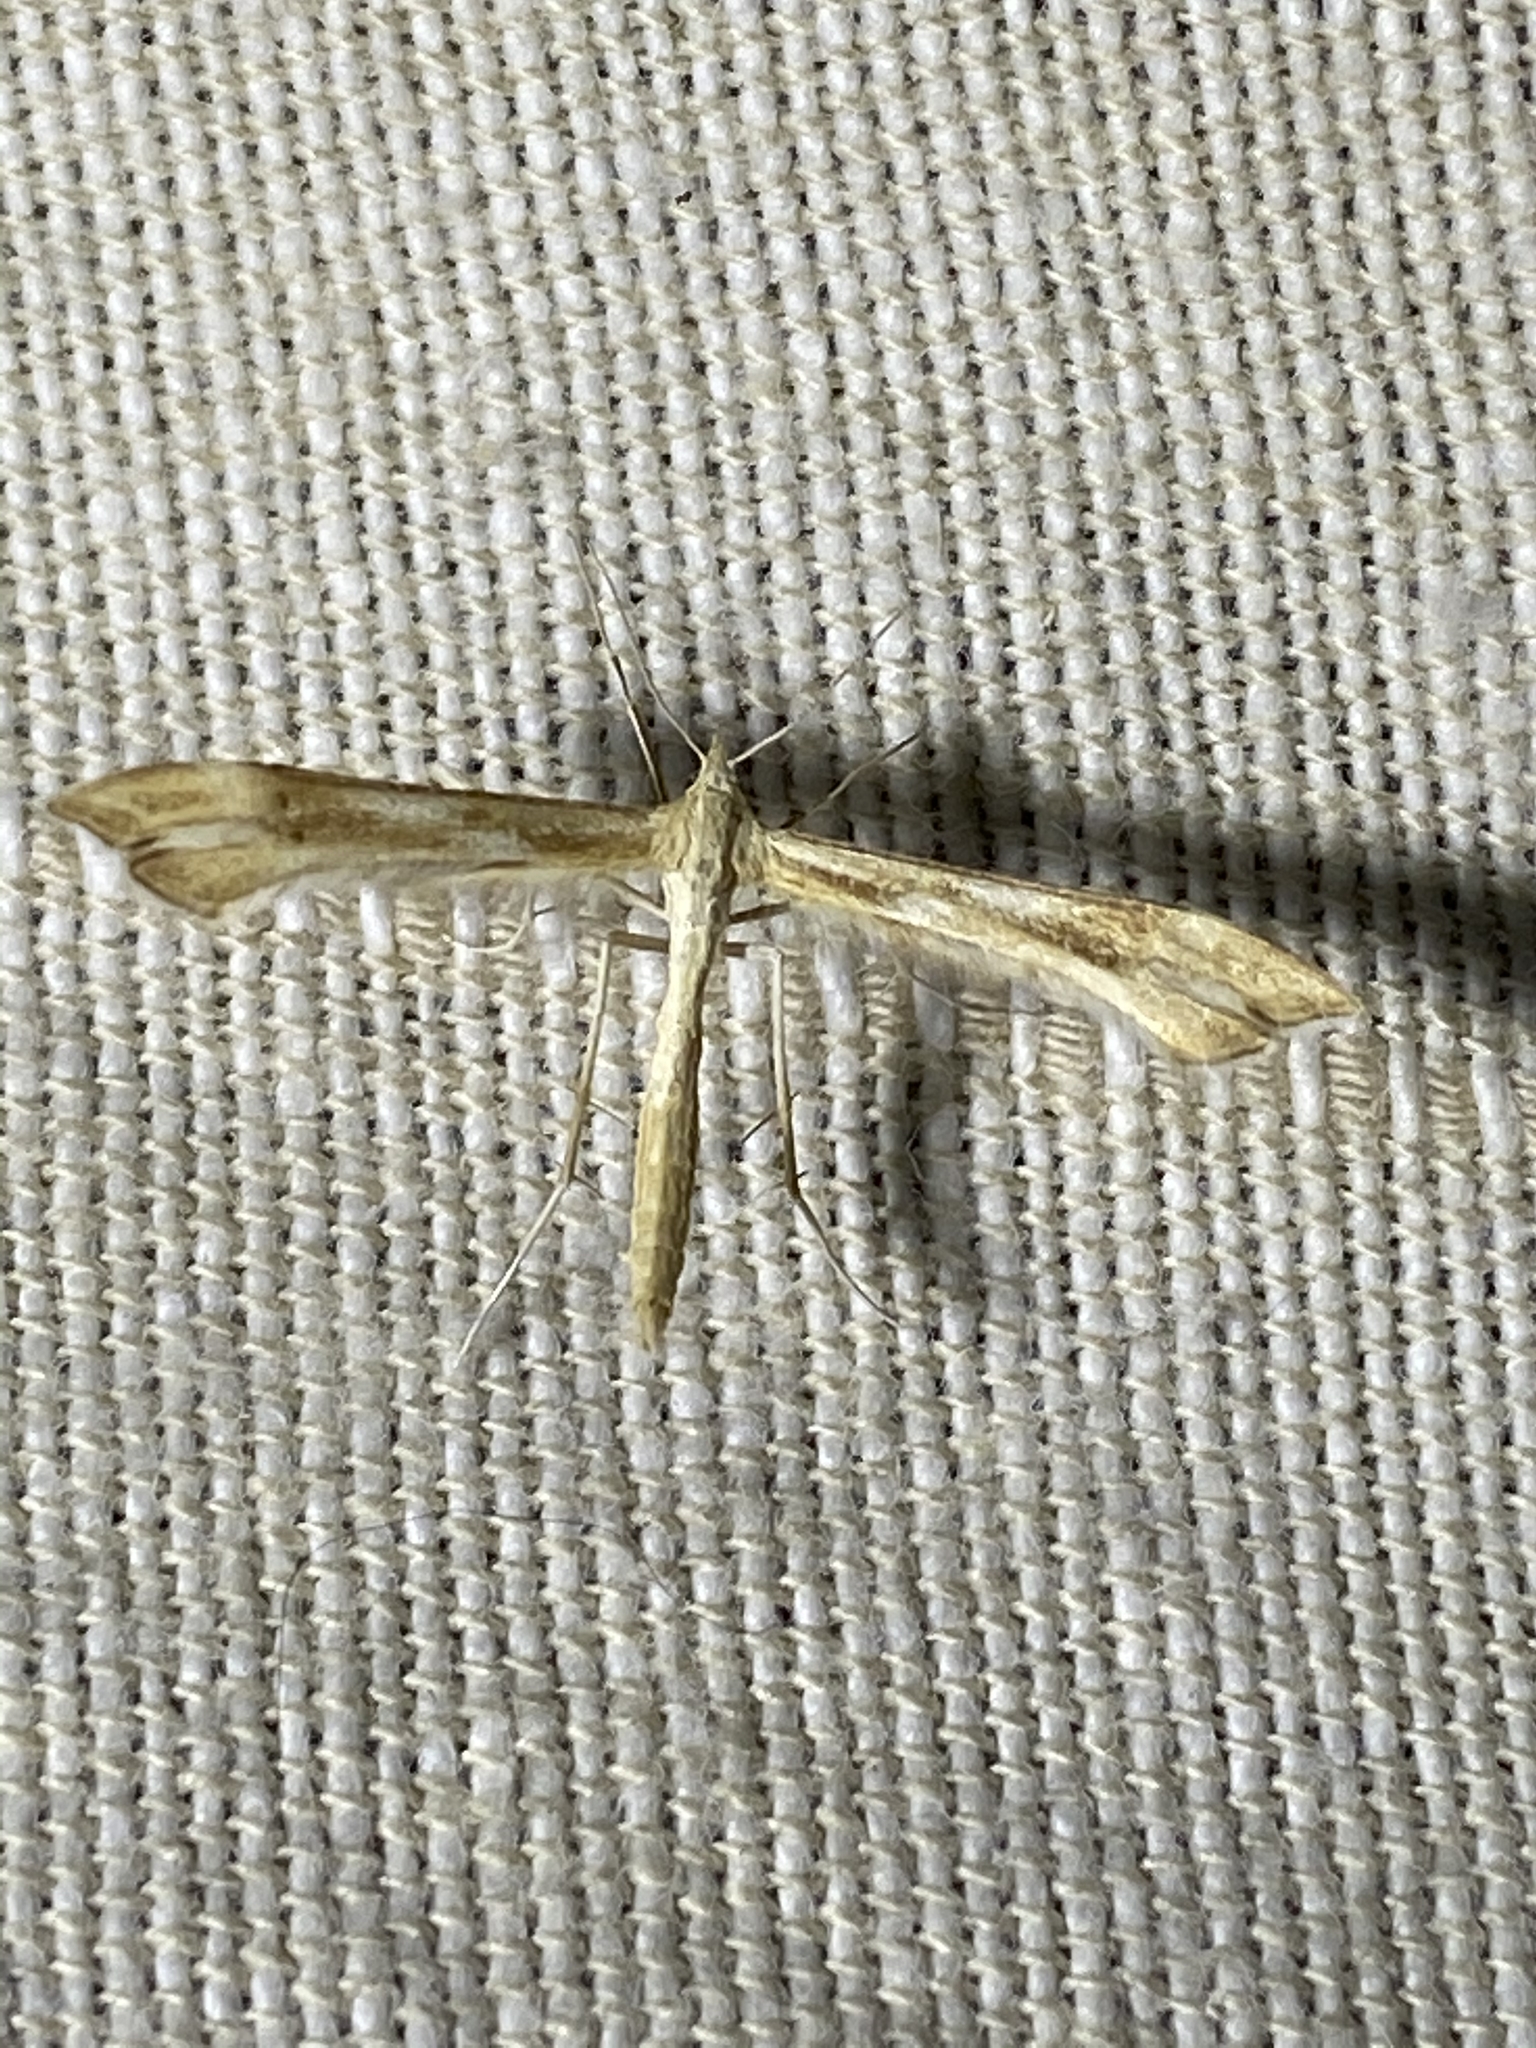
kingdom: Animalia
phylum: Arthropoda
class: Insecta
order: Lepidoptera
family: Pterophoridae
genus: Gillmeria
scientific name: Gillmeria pallidactyla
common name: Yarrow plume
